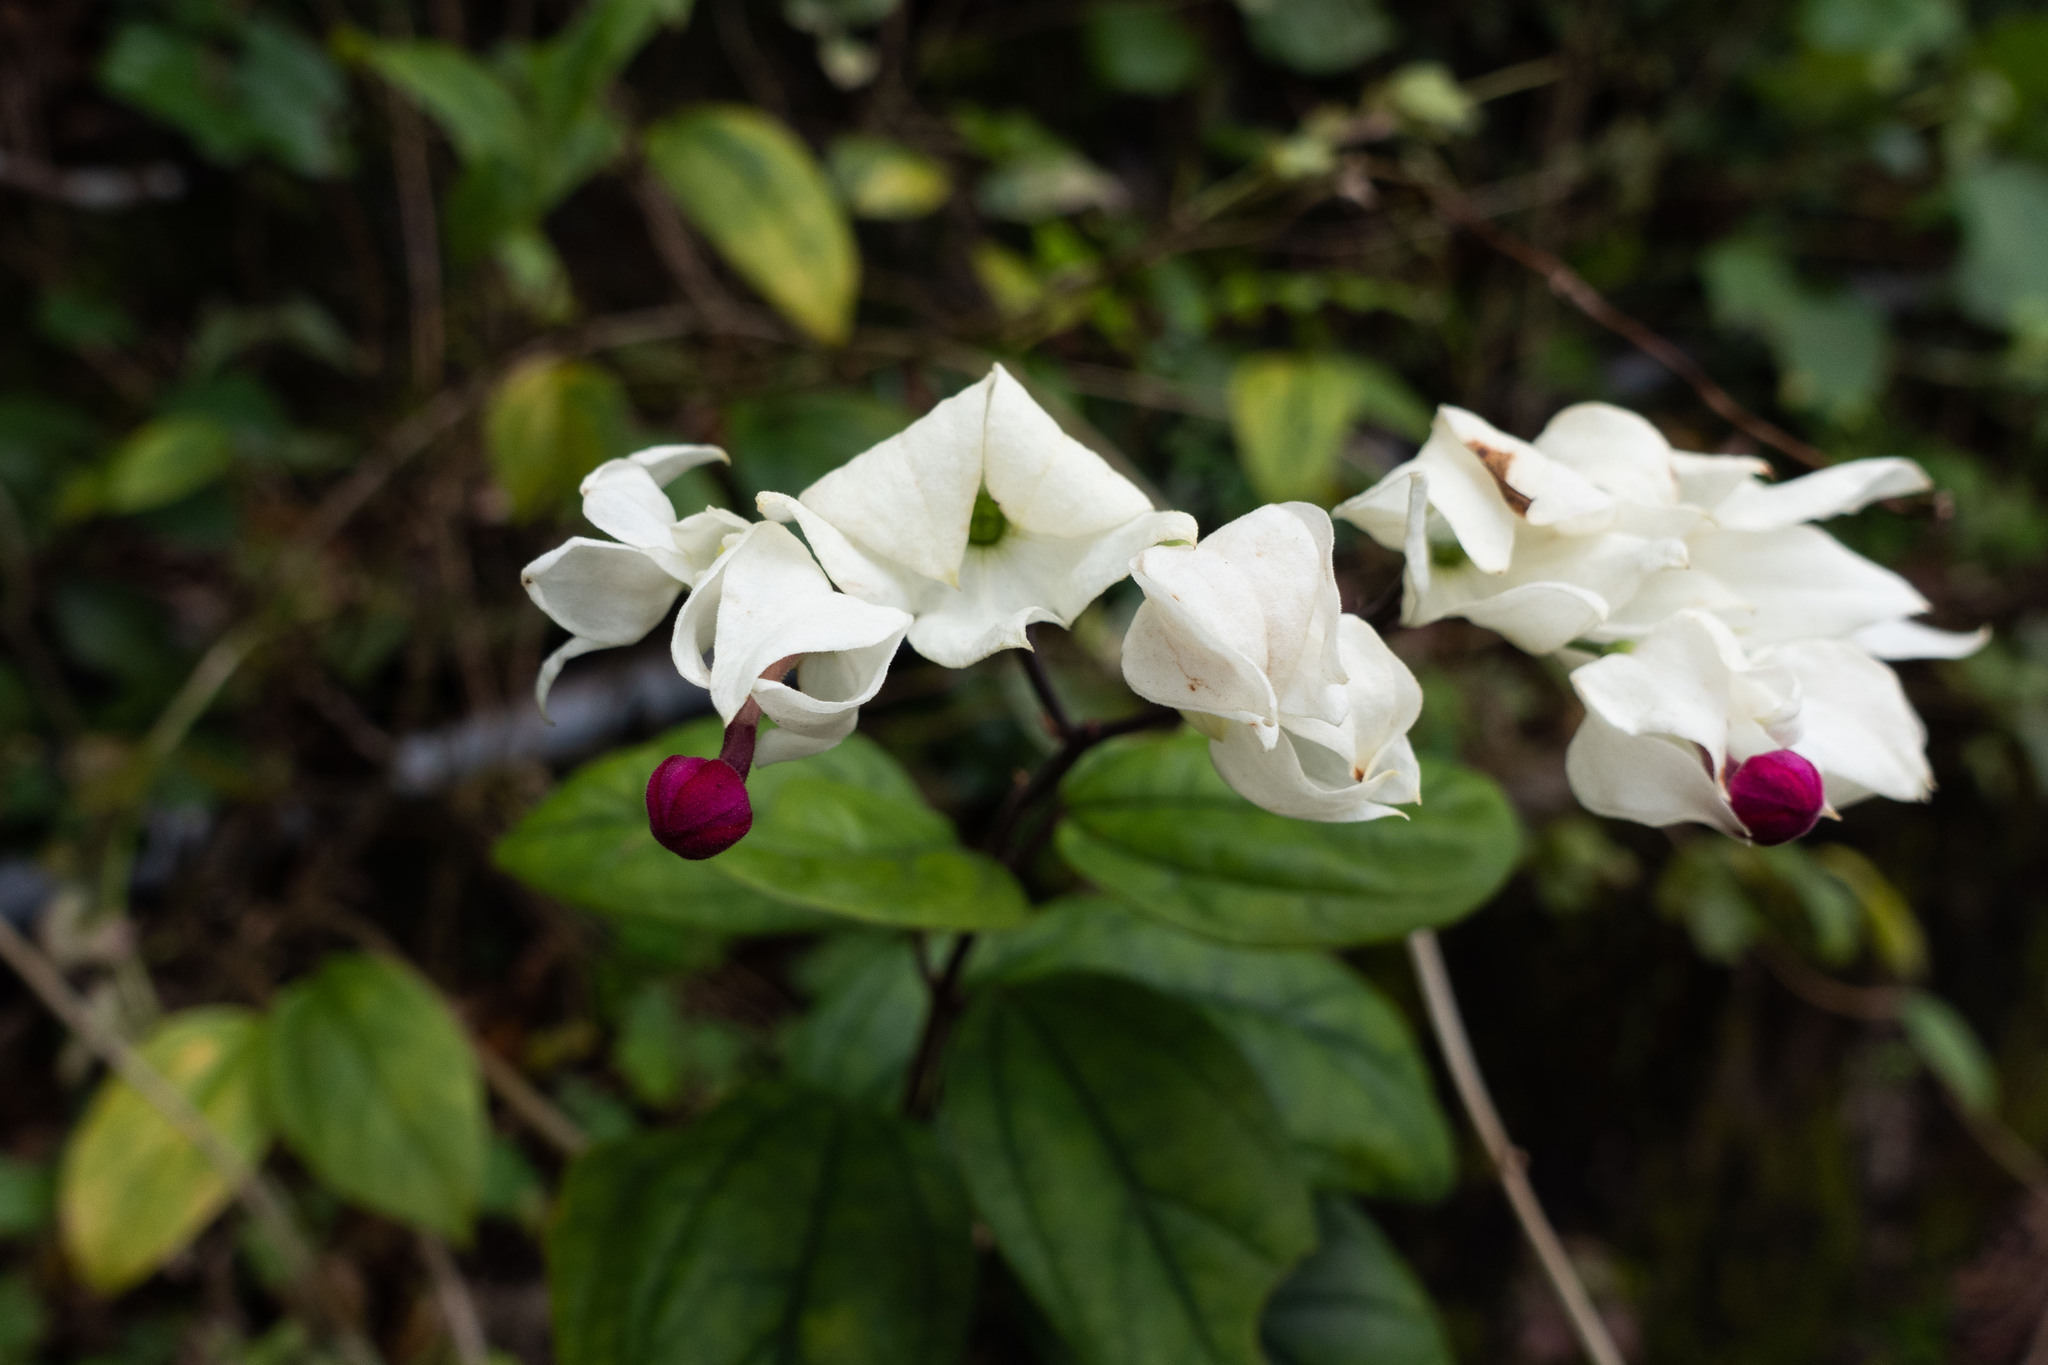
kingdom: Plantae
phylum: Tracheophyta
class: Magnoliopsida
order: Lamiales
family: Lamiaceae
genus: Clerodendrum
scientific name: Clerodendrum thomsoniae
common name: Bagflower
